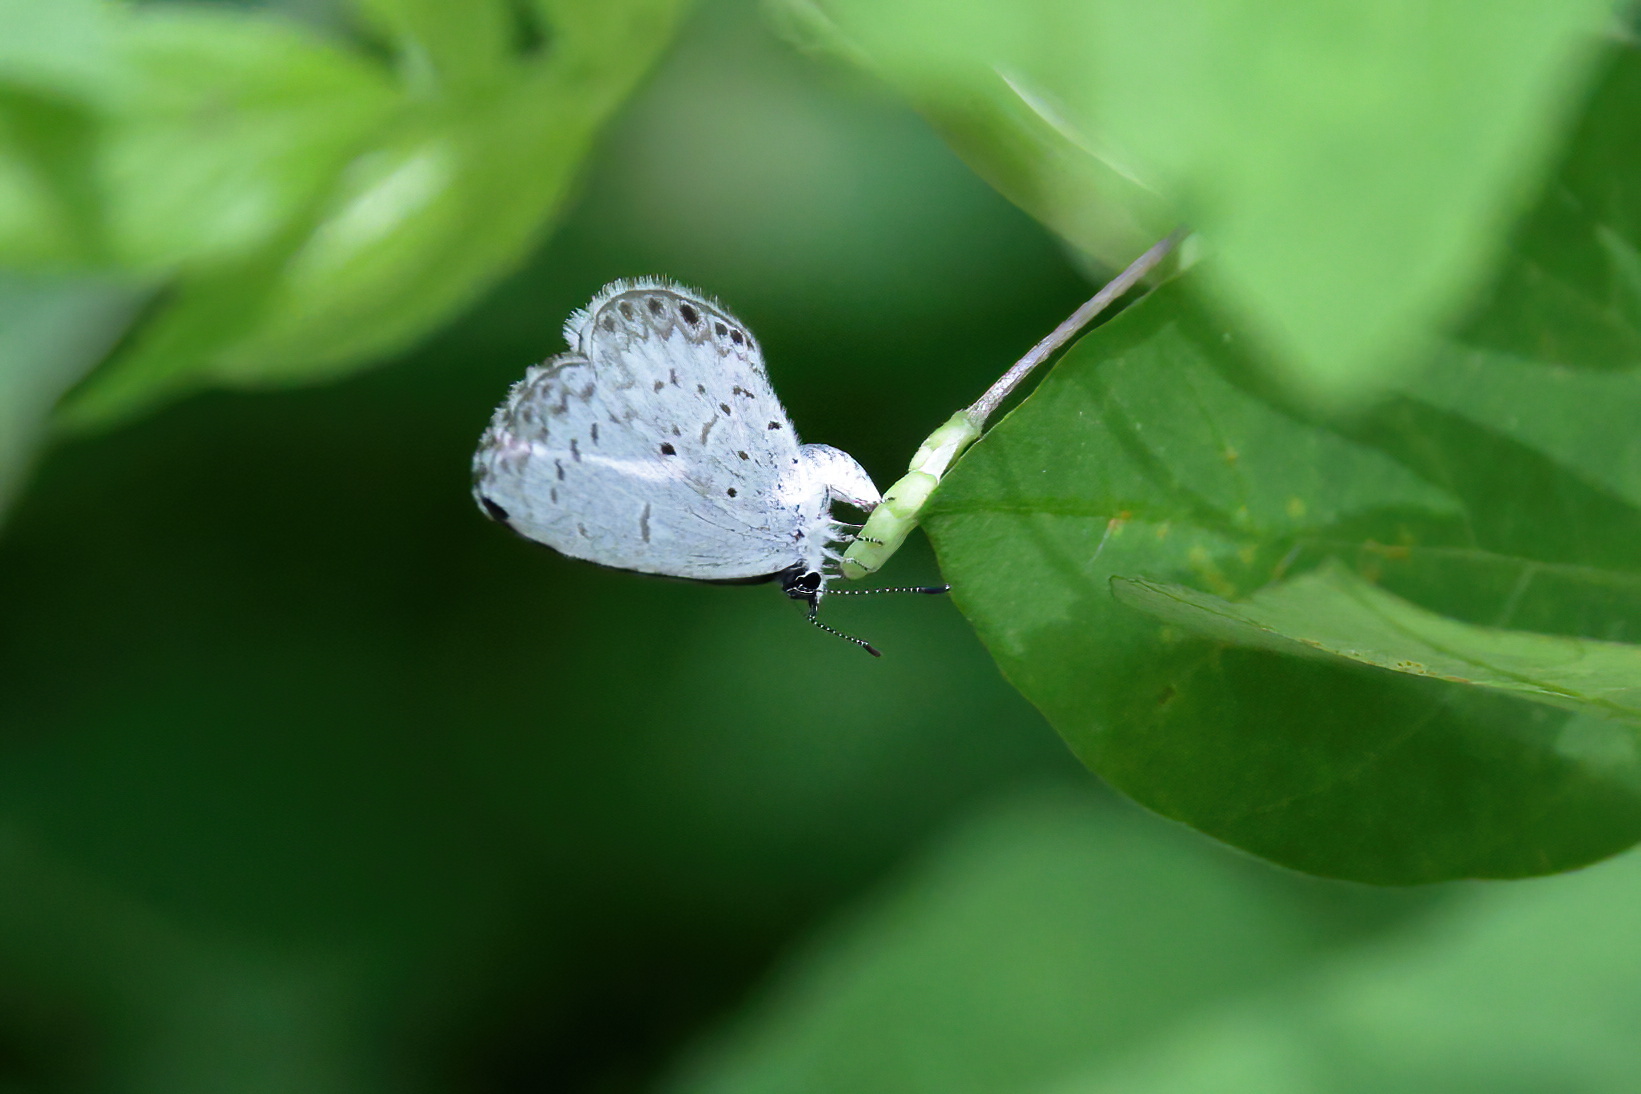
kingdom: Animalia
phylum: Arthropoda
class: Insecta
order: Lepidoptera
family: Lycaenidae
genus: Cyaniris
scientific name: Cyaniris neglecta
